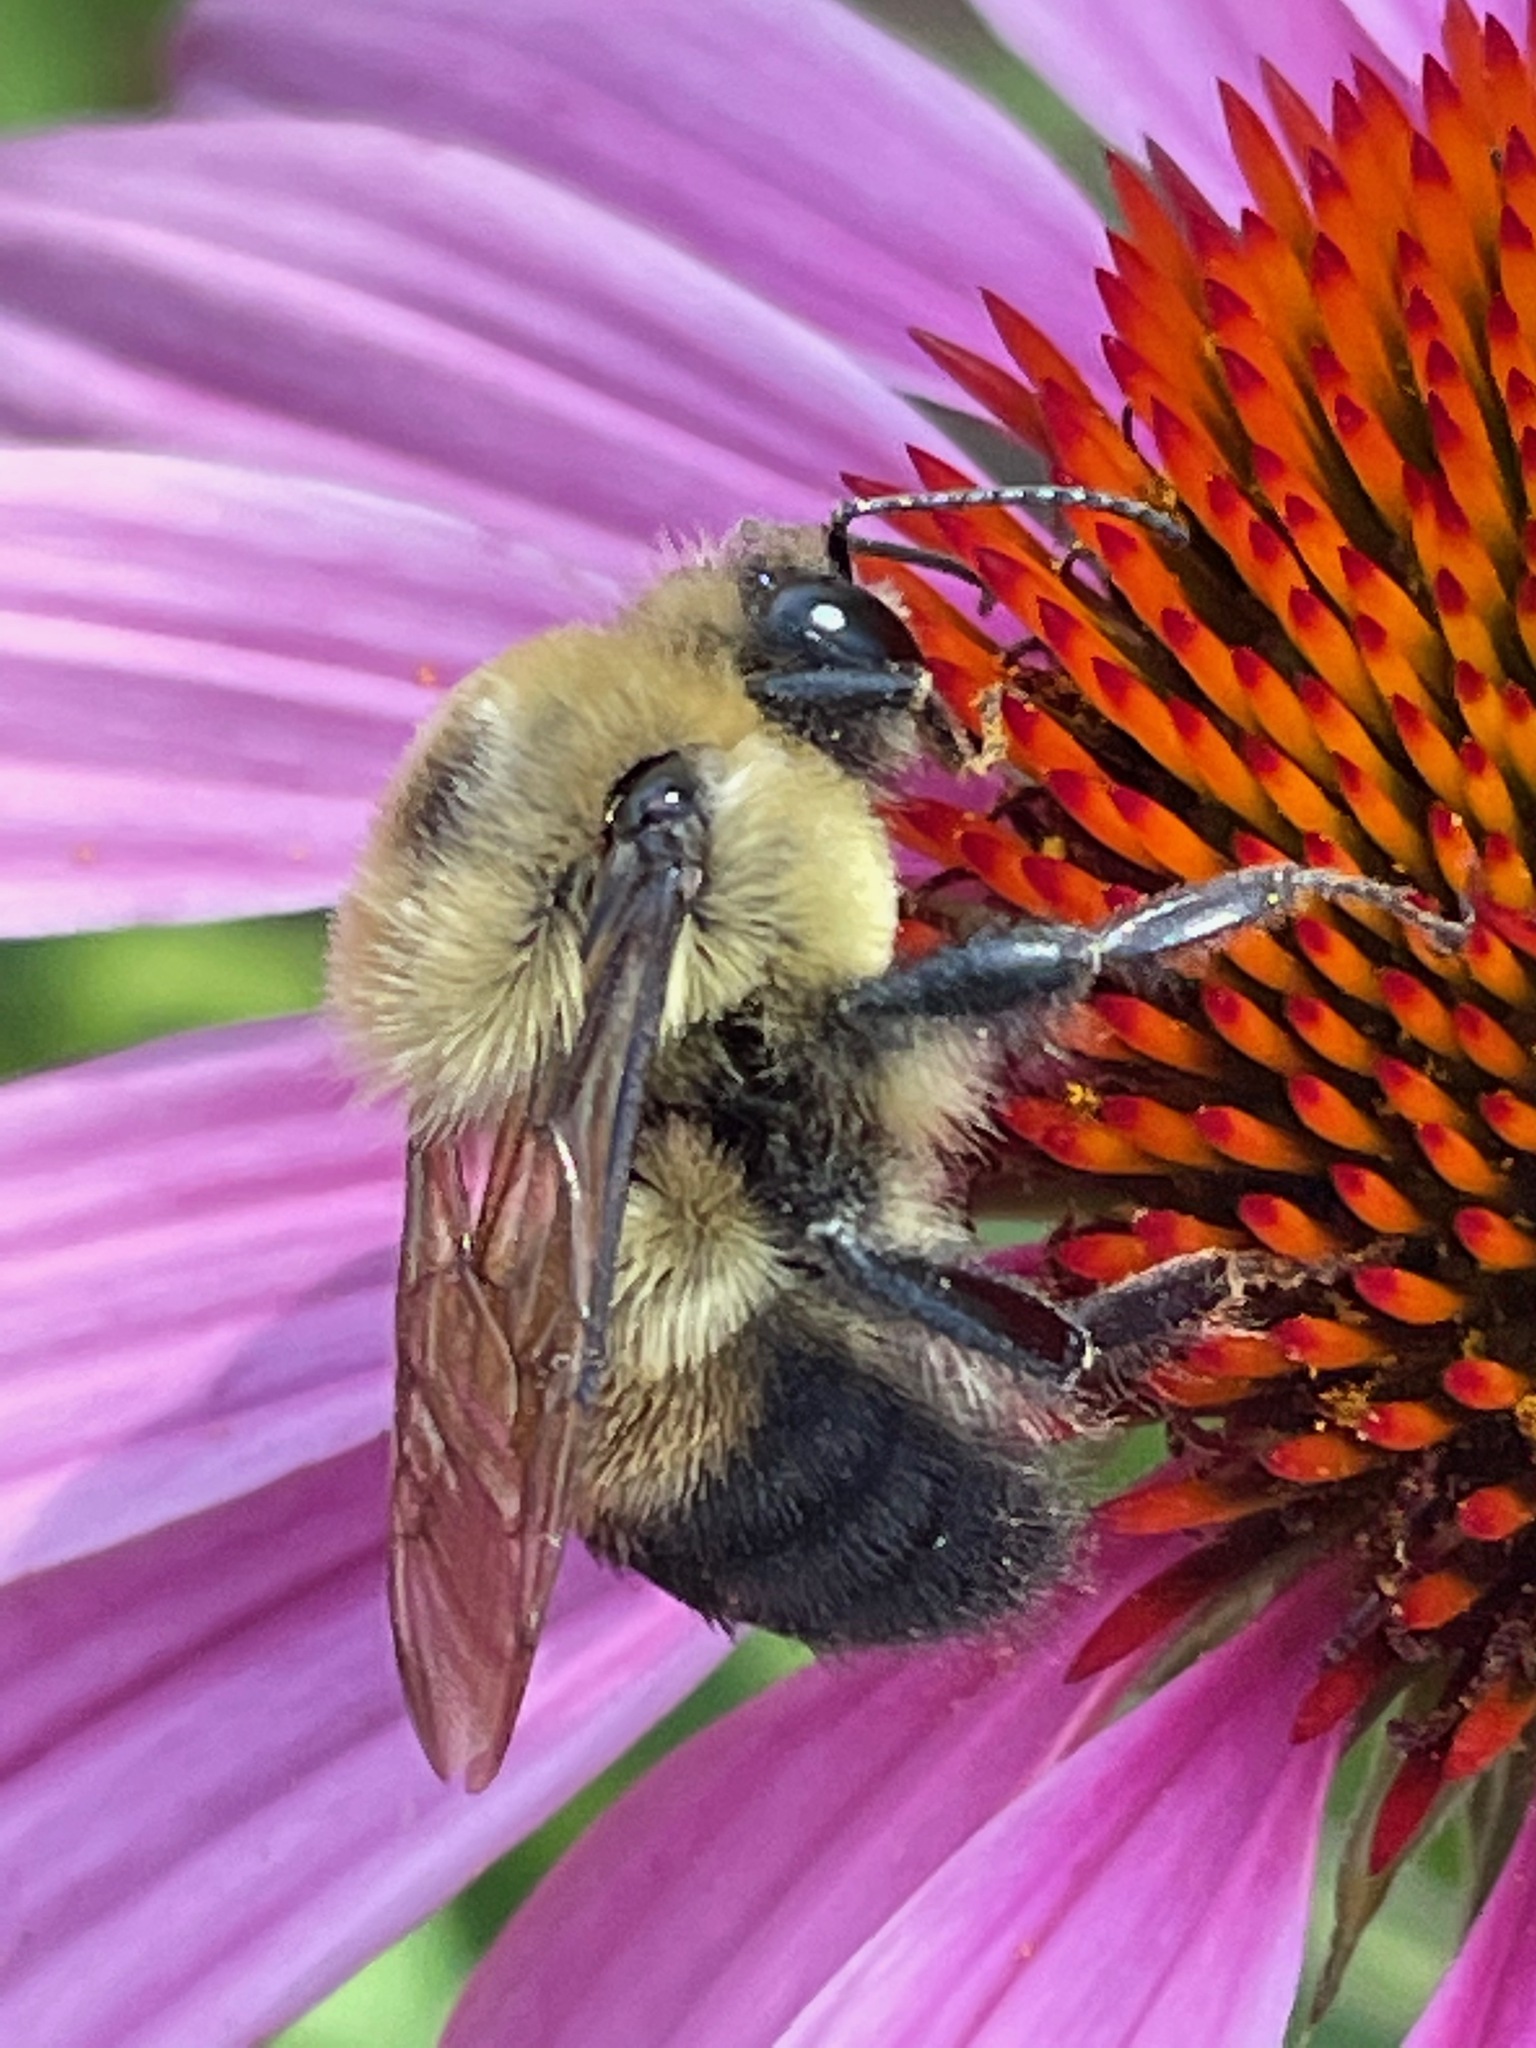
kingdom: Animalia
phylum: Arthropoda
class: Insecta
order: Hymenoptera
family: Apidae
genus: Bombus
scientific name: Bombus griseocollis
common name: Brown-belted bumble bee
